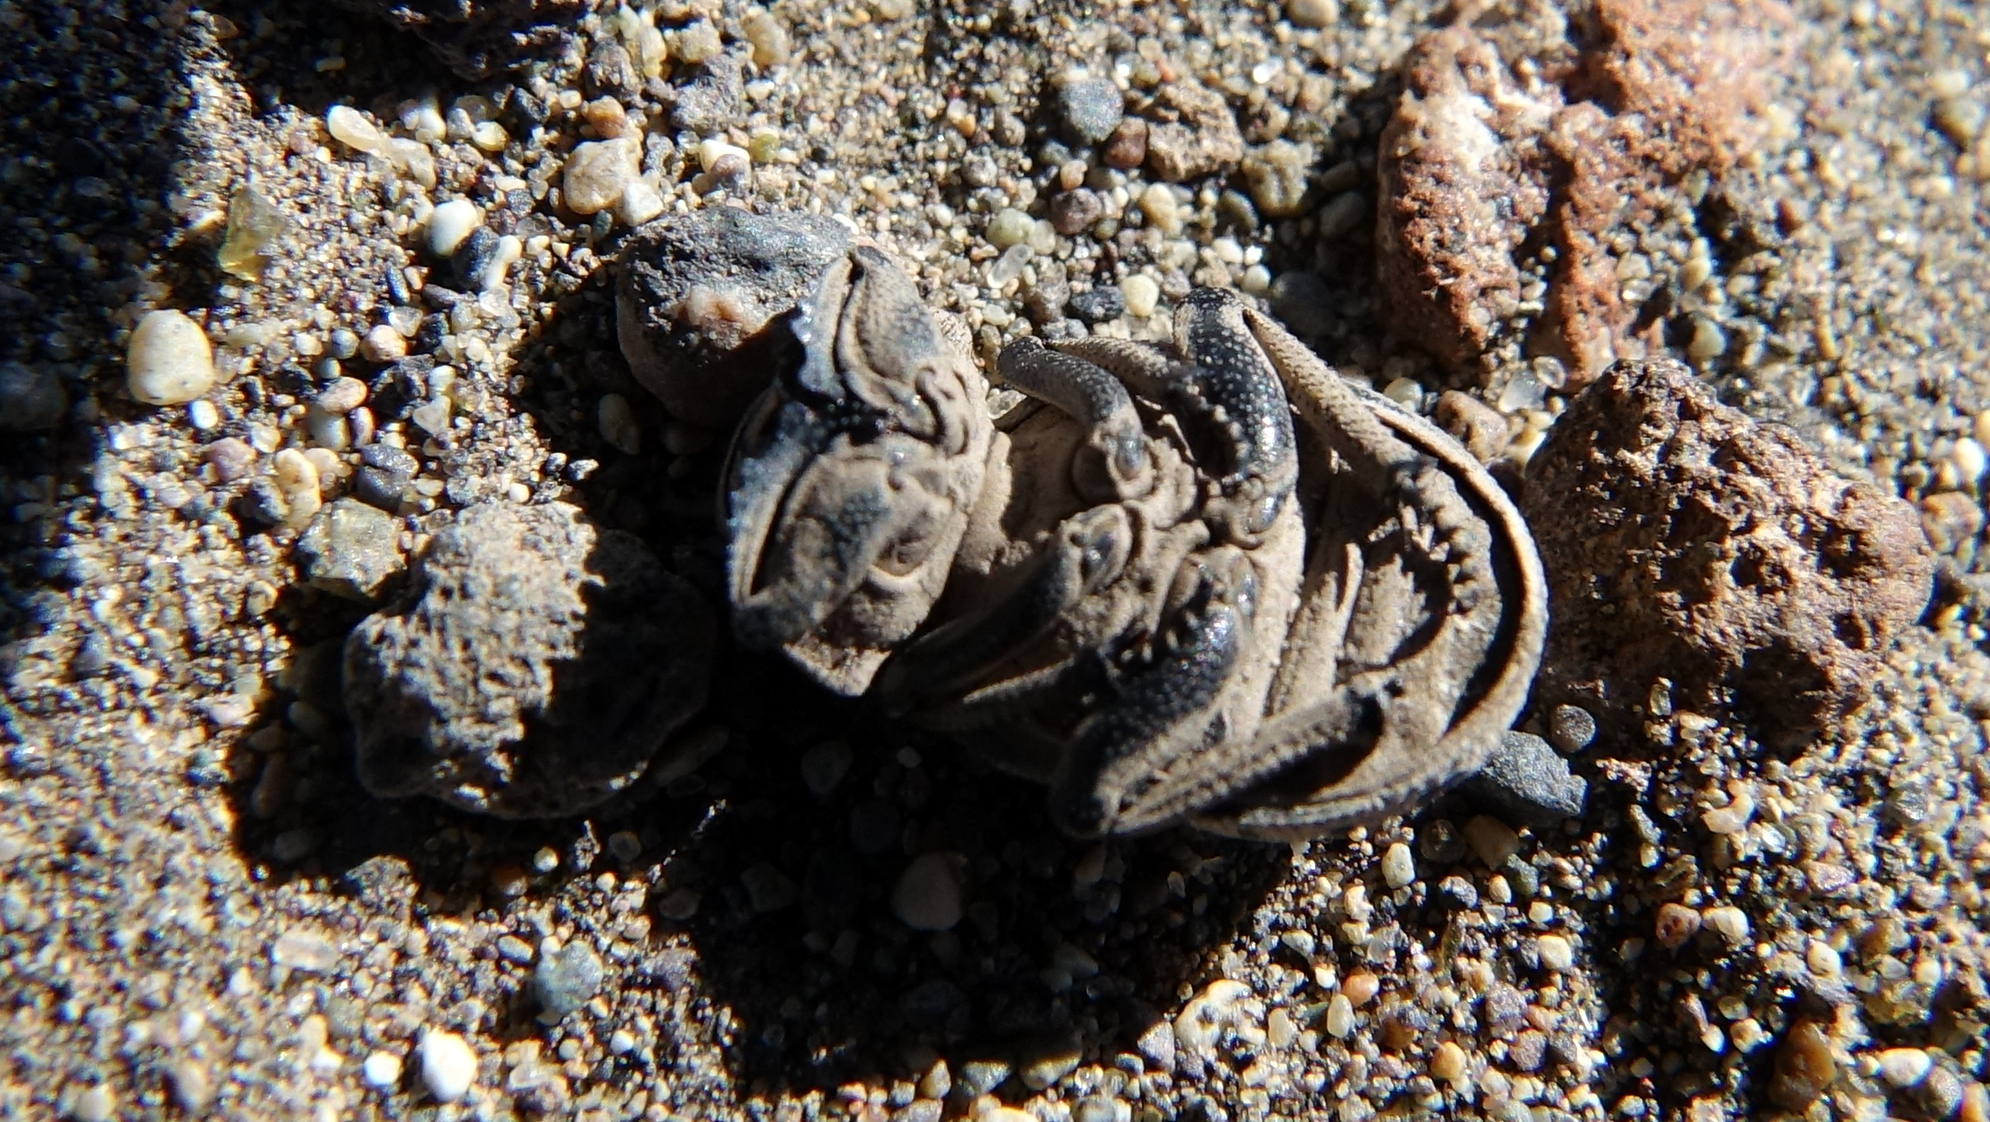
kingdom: Animalia
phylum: Arthropoda
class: Insecta
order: Coleoptera
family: Trogidae
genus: Omorgus
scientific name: Omorgus pastillarius
